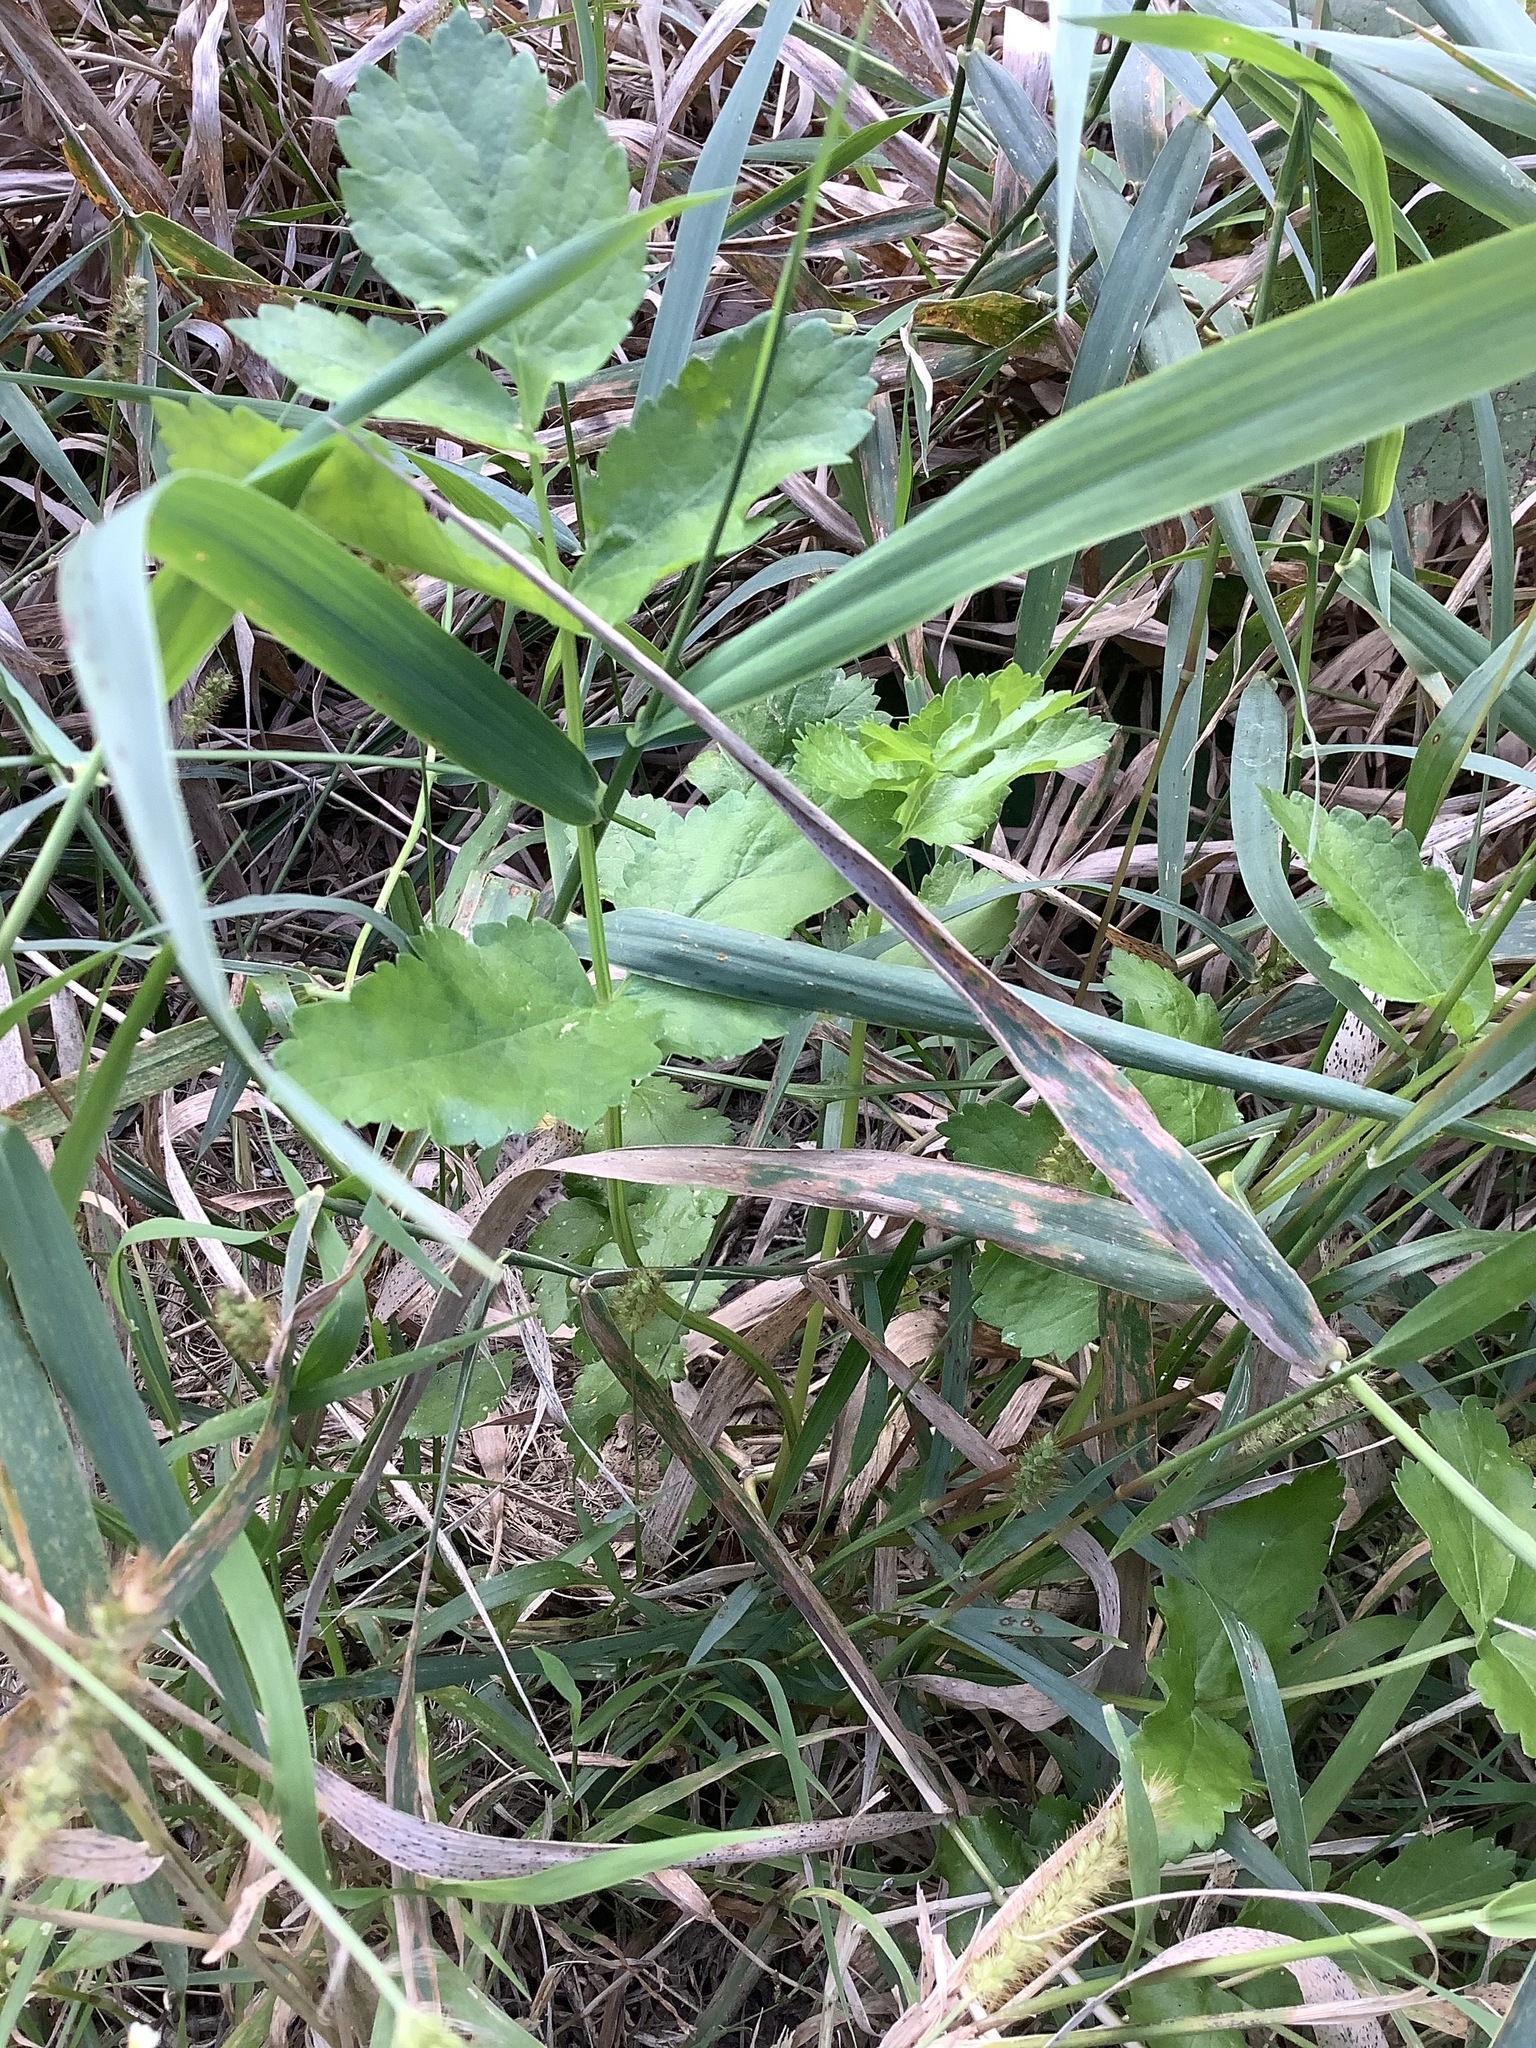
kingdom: Plantae
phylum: Tracheophyta
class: Magnoliopsida
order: Apiales
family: Apiaceae
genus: Pastinaca
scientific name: Pastinaca sativa
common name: Wild parsnip
